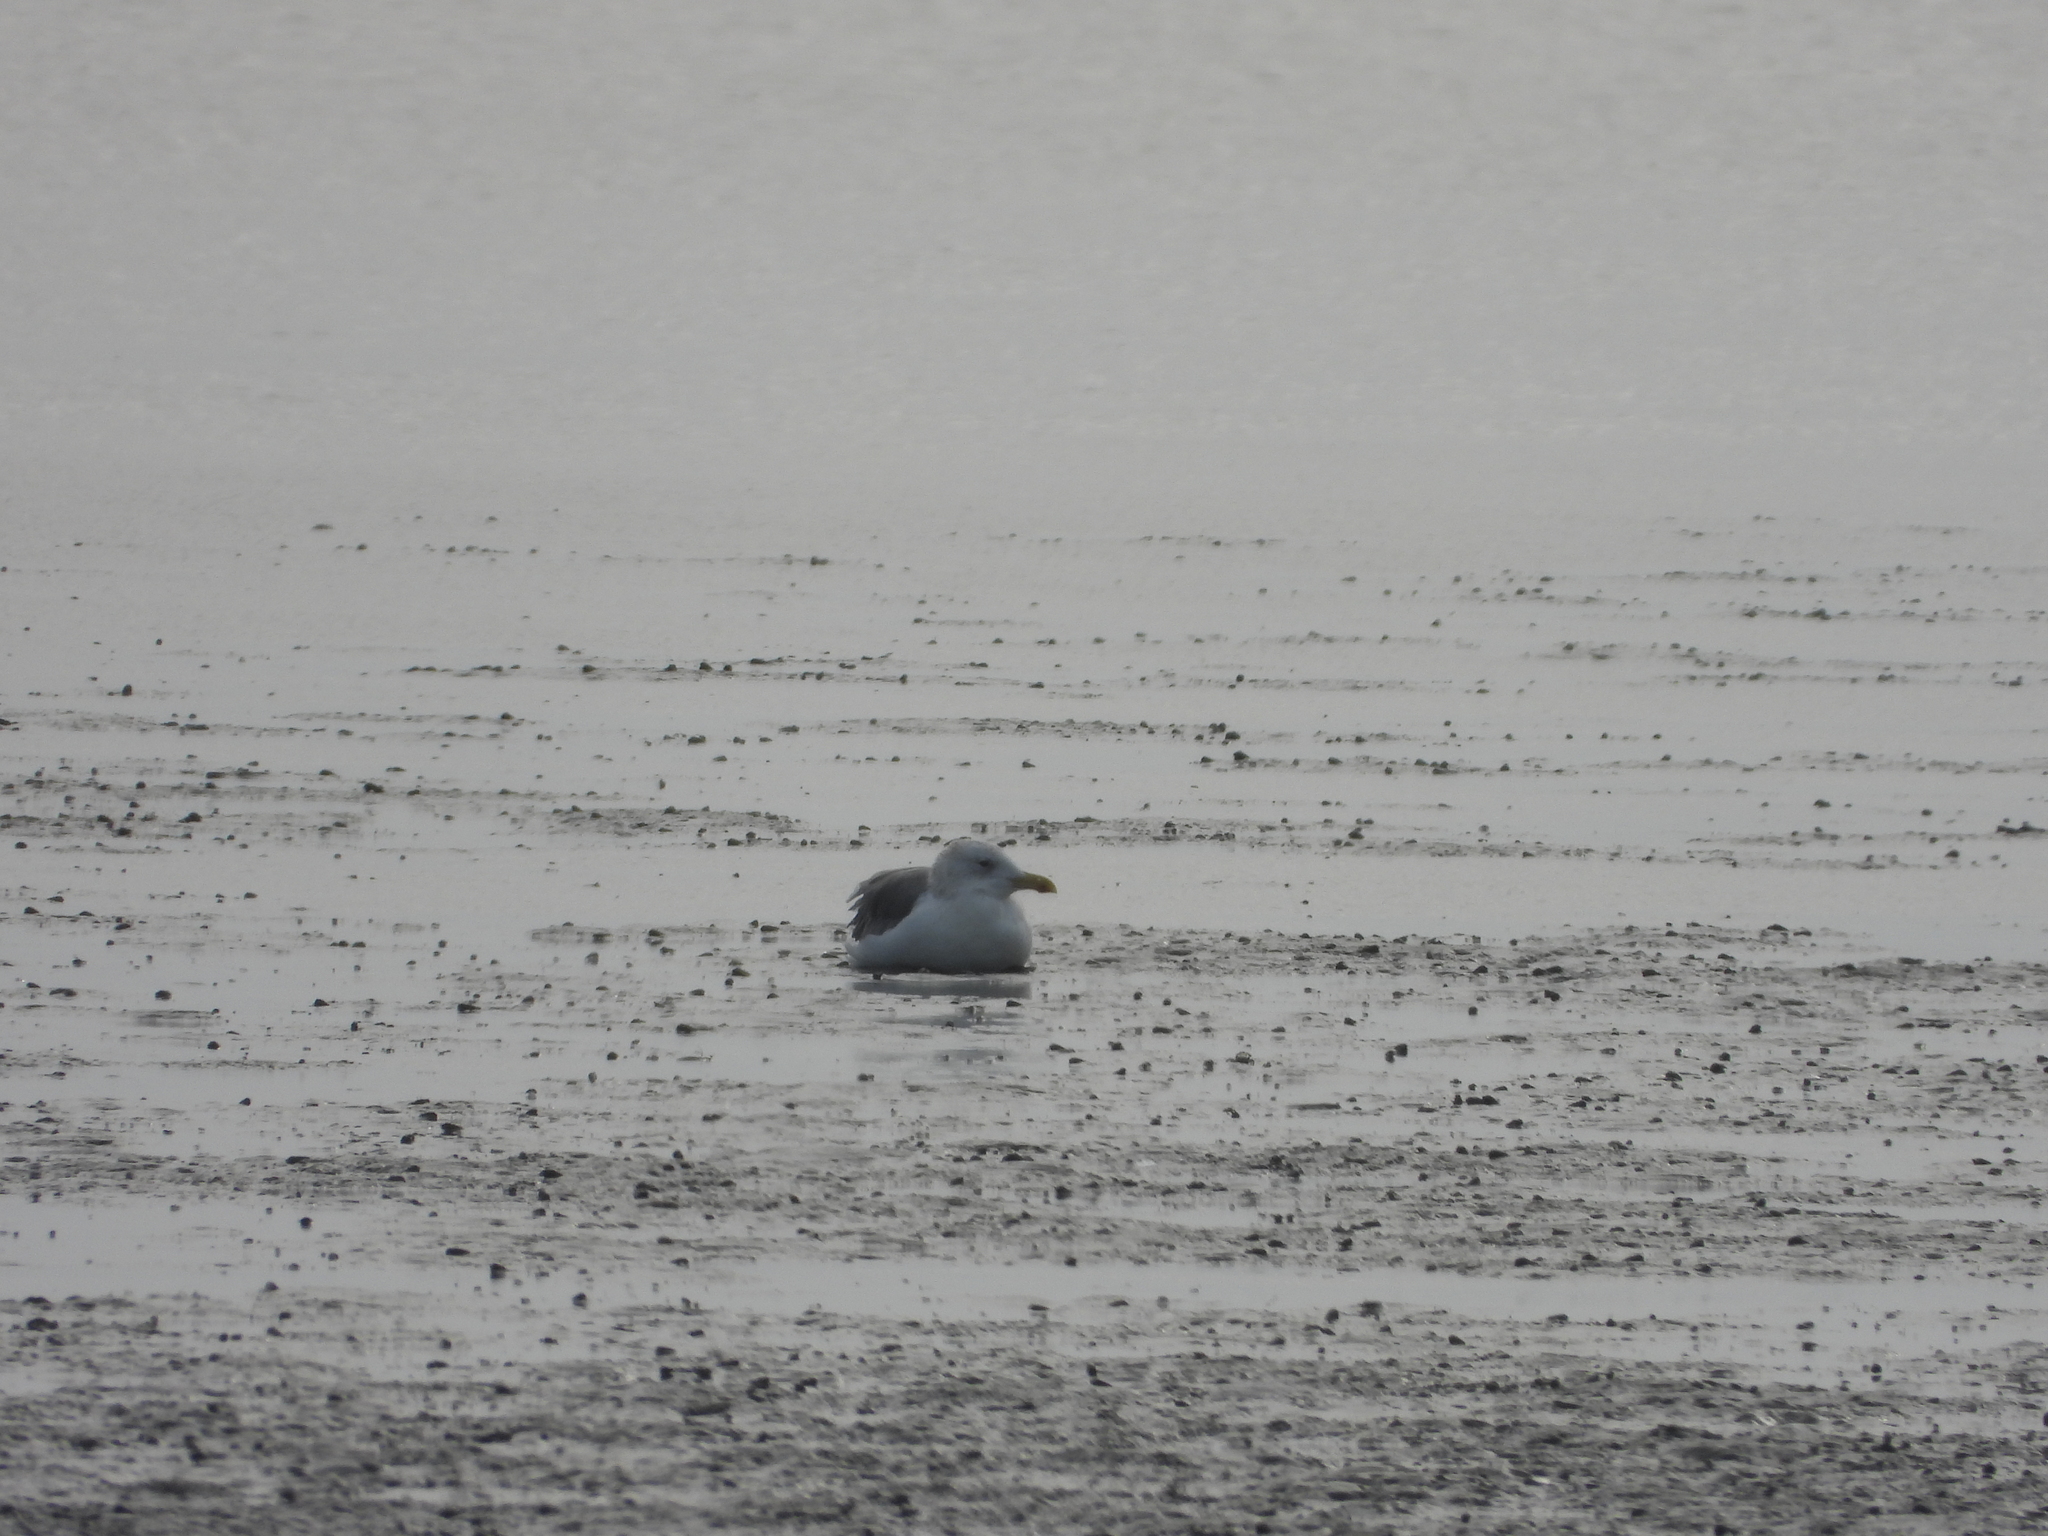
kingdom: Animalia
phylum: Chordata
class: Aves
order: Charadriiformes
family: Laridae
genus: Larus
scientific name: Larus argentatus
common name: Herring gull
